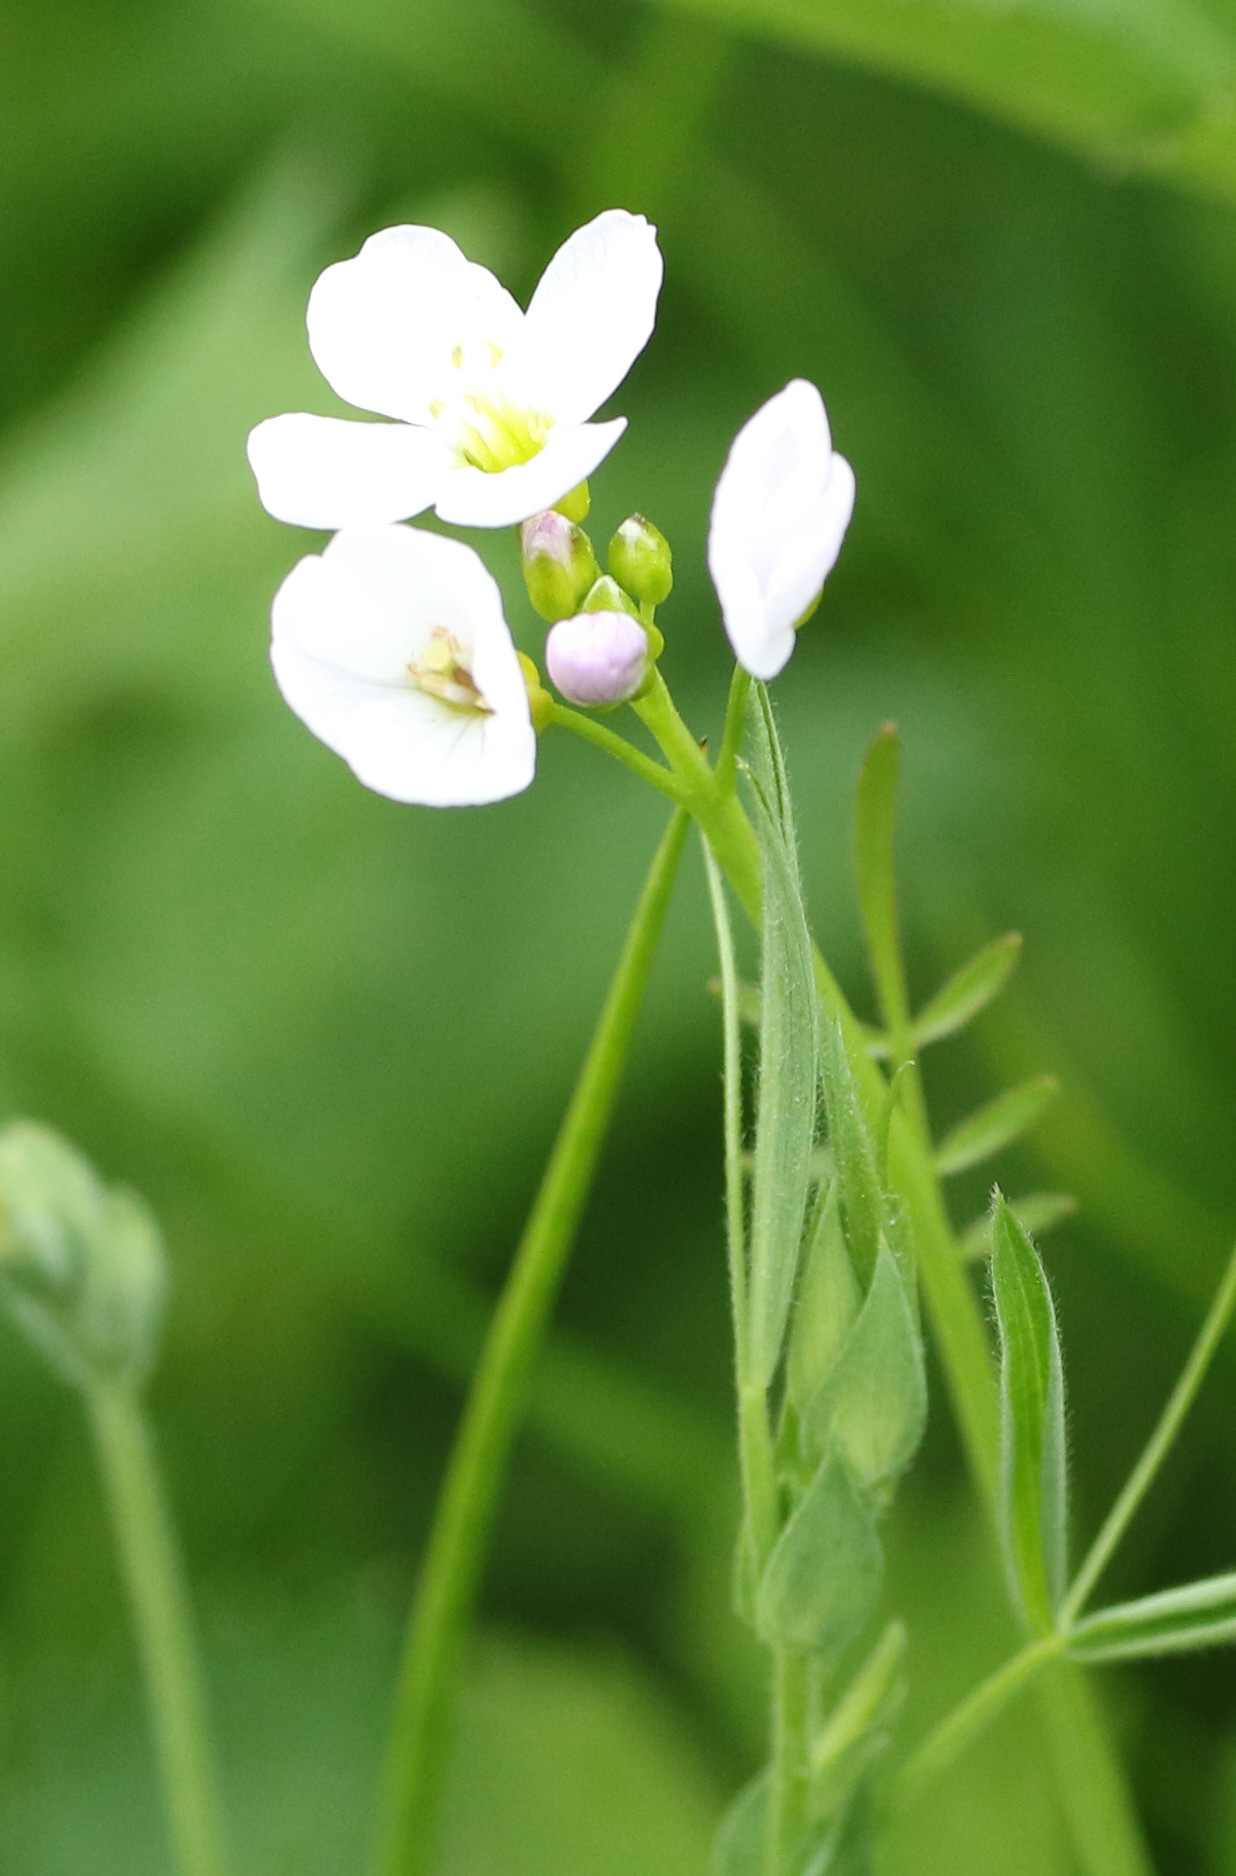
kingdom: Plantae
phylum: Tracheophyta
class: Magnoliopsida
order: Brassicales
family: Brassicaceae
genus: Cardamine
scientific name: Cardamine pratensis
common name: Cuckoo flower
